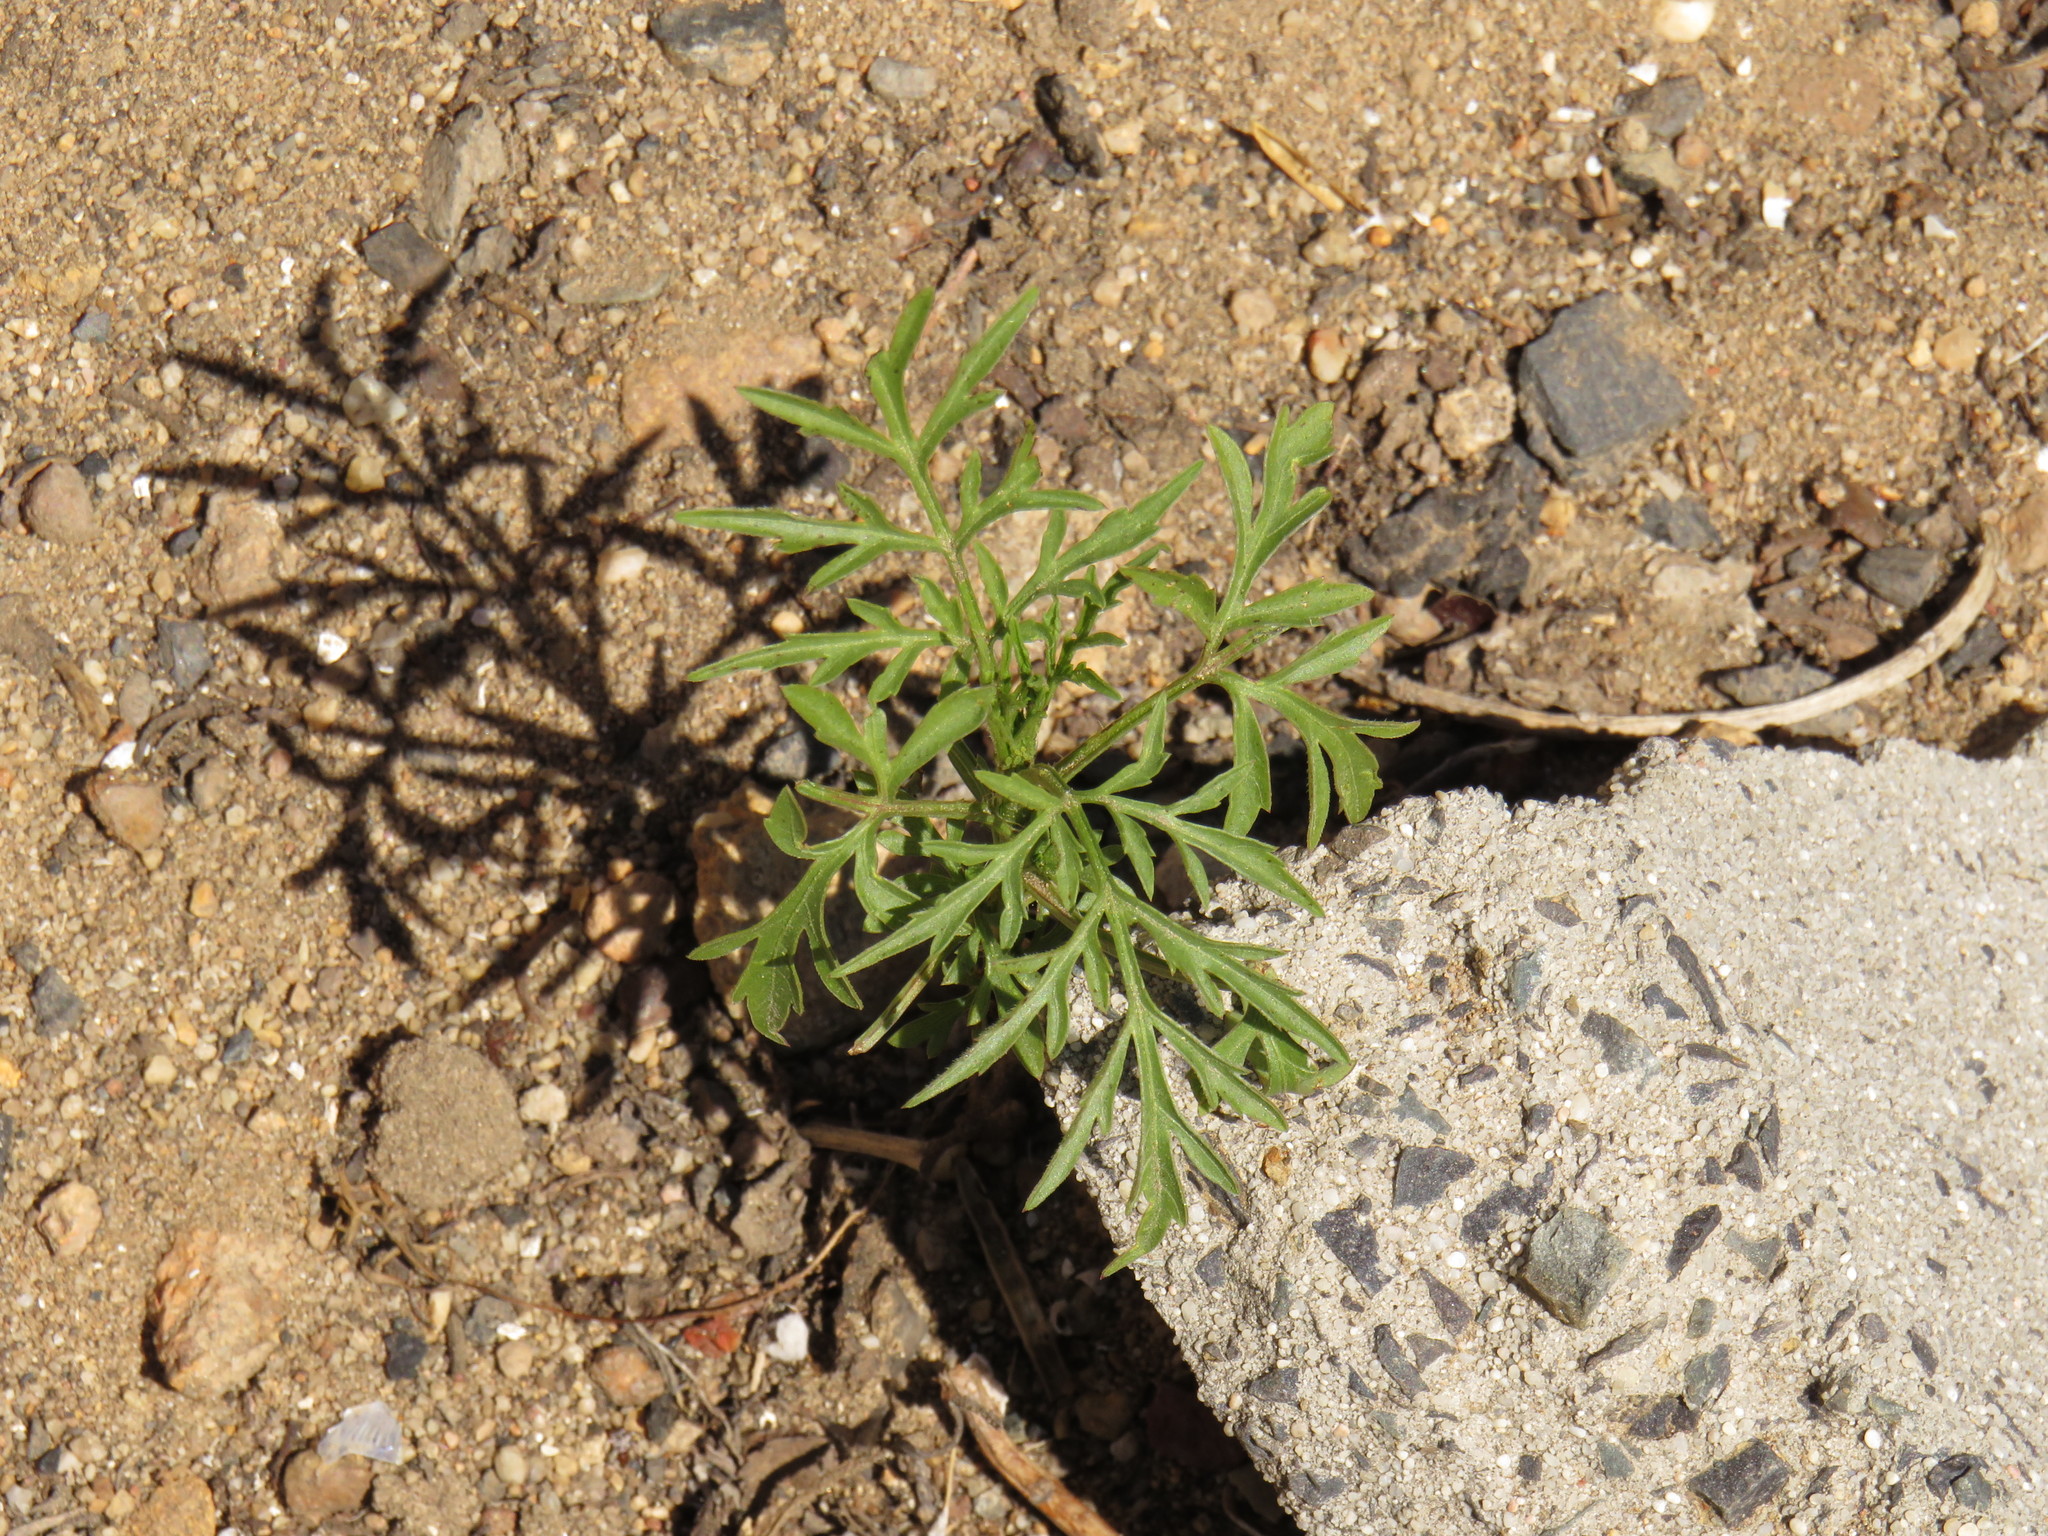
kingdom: Plantae
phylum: Tracheophyta
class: Magnoliopsida
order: Asterales
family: Asteraceae
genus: Bidens
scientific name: Bidens bipinnata
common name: Spanish-needles
